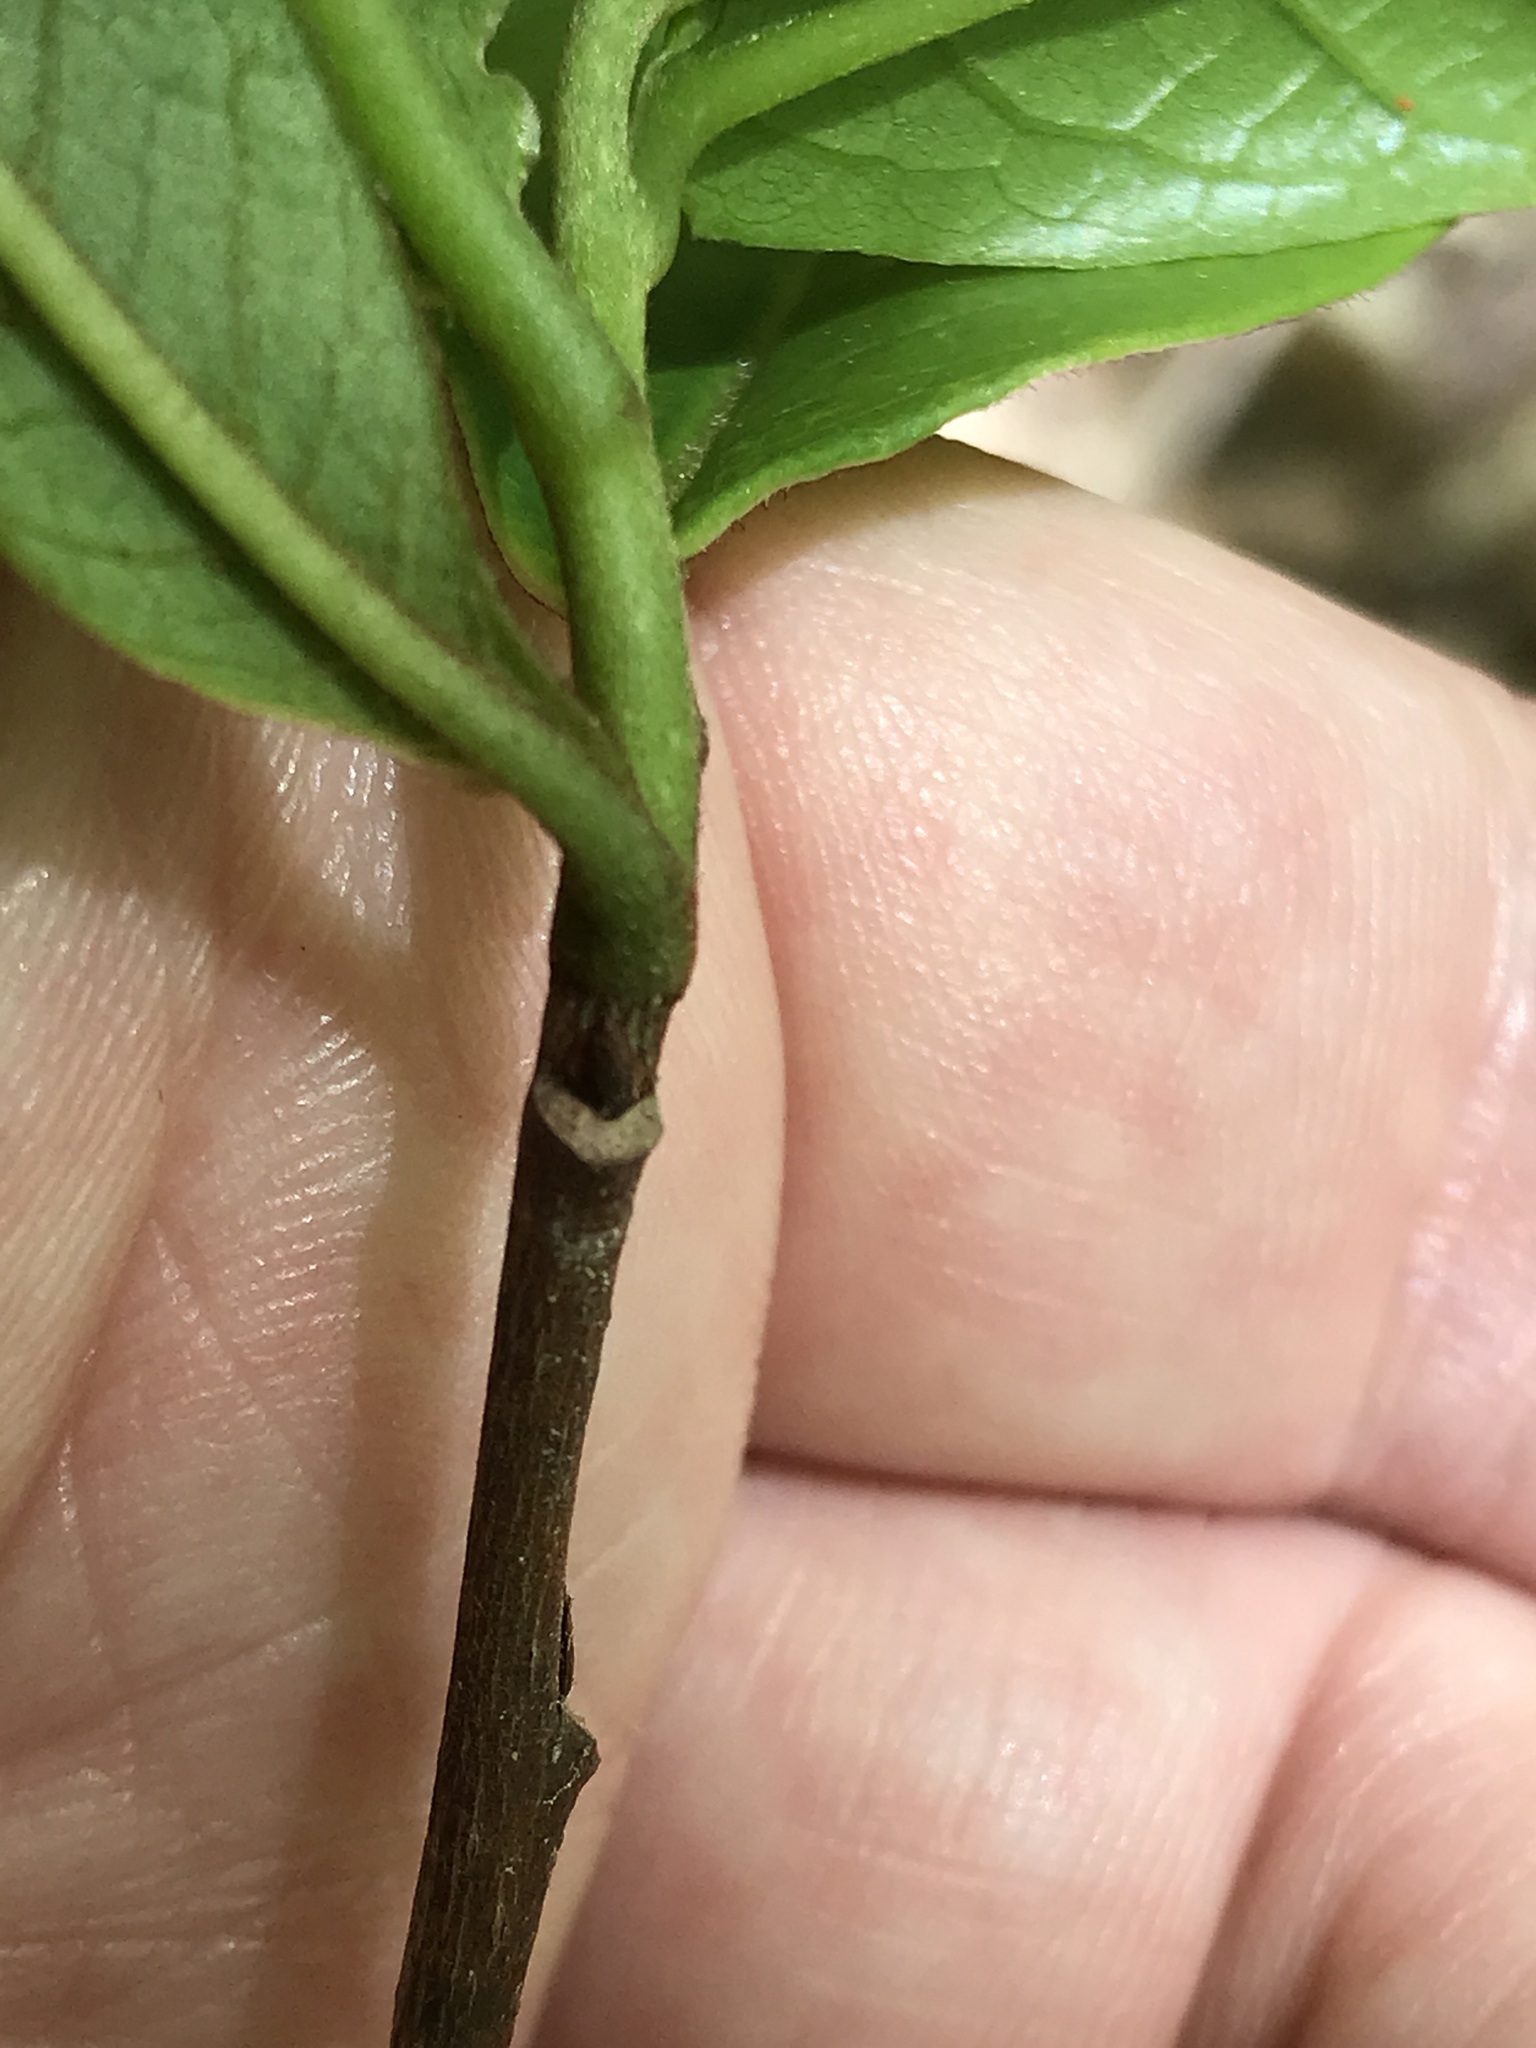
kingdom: Plantae
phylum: Tracheophyta
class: Magnoliopsida
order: Magnoliales
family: Annonaceae
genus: Asimina
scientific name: Asimina triloba
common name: Dog-banana
